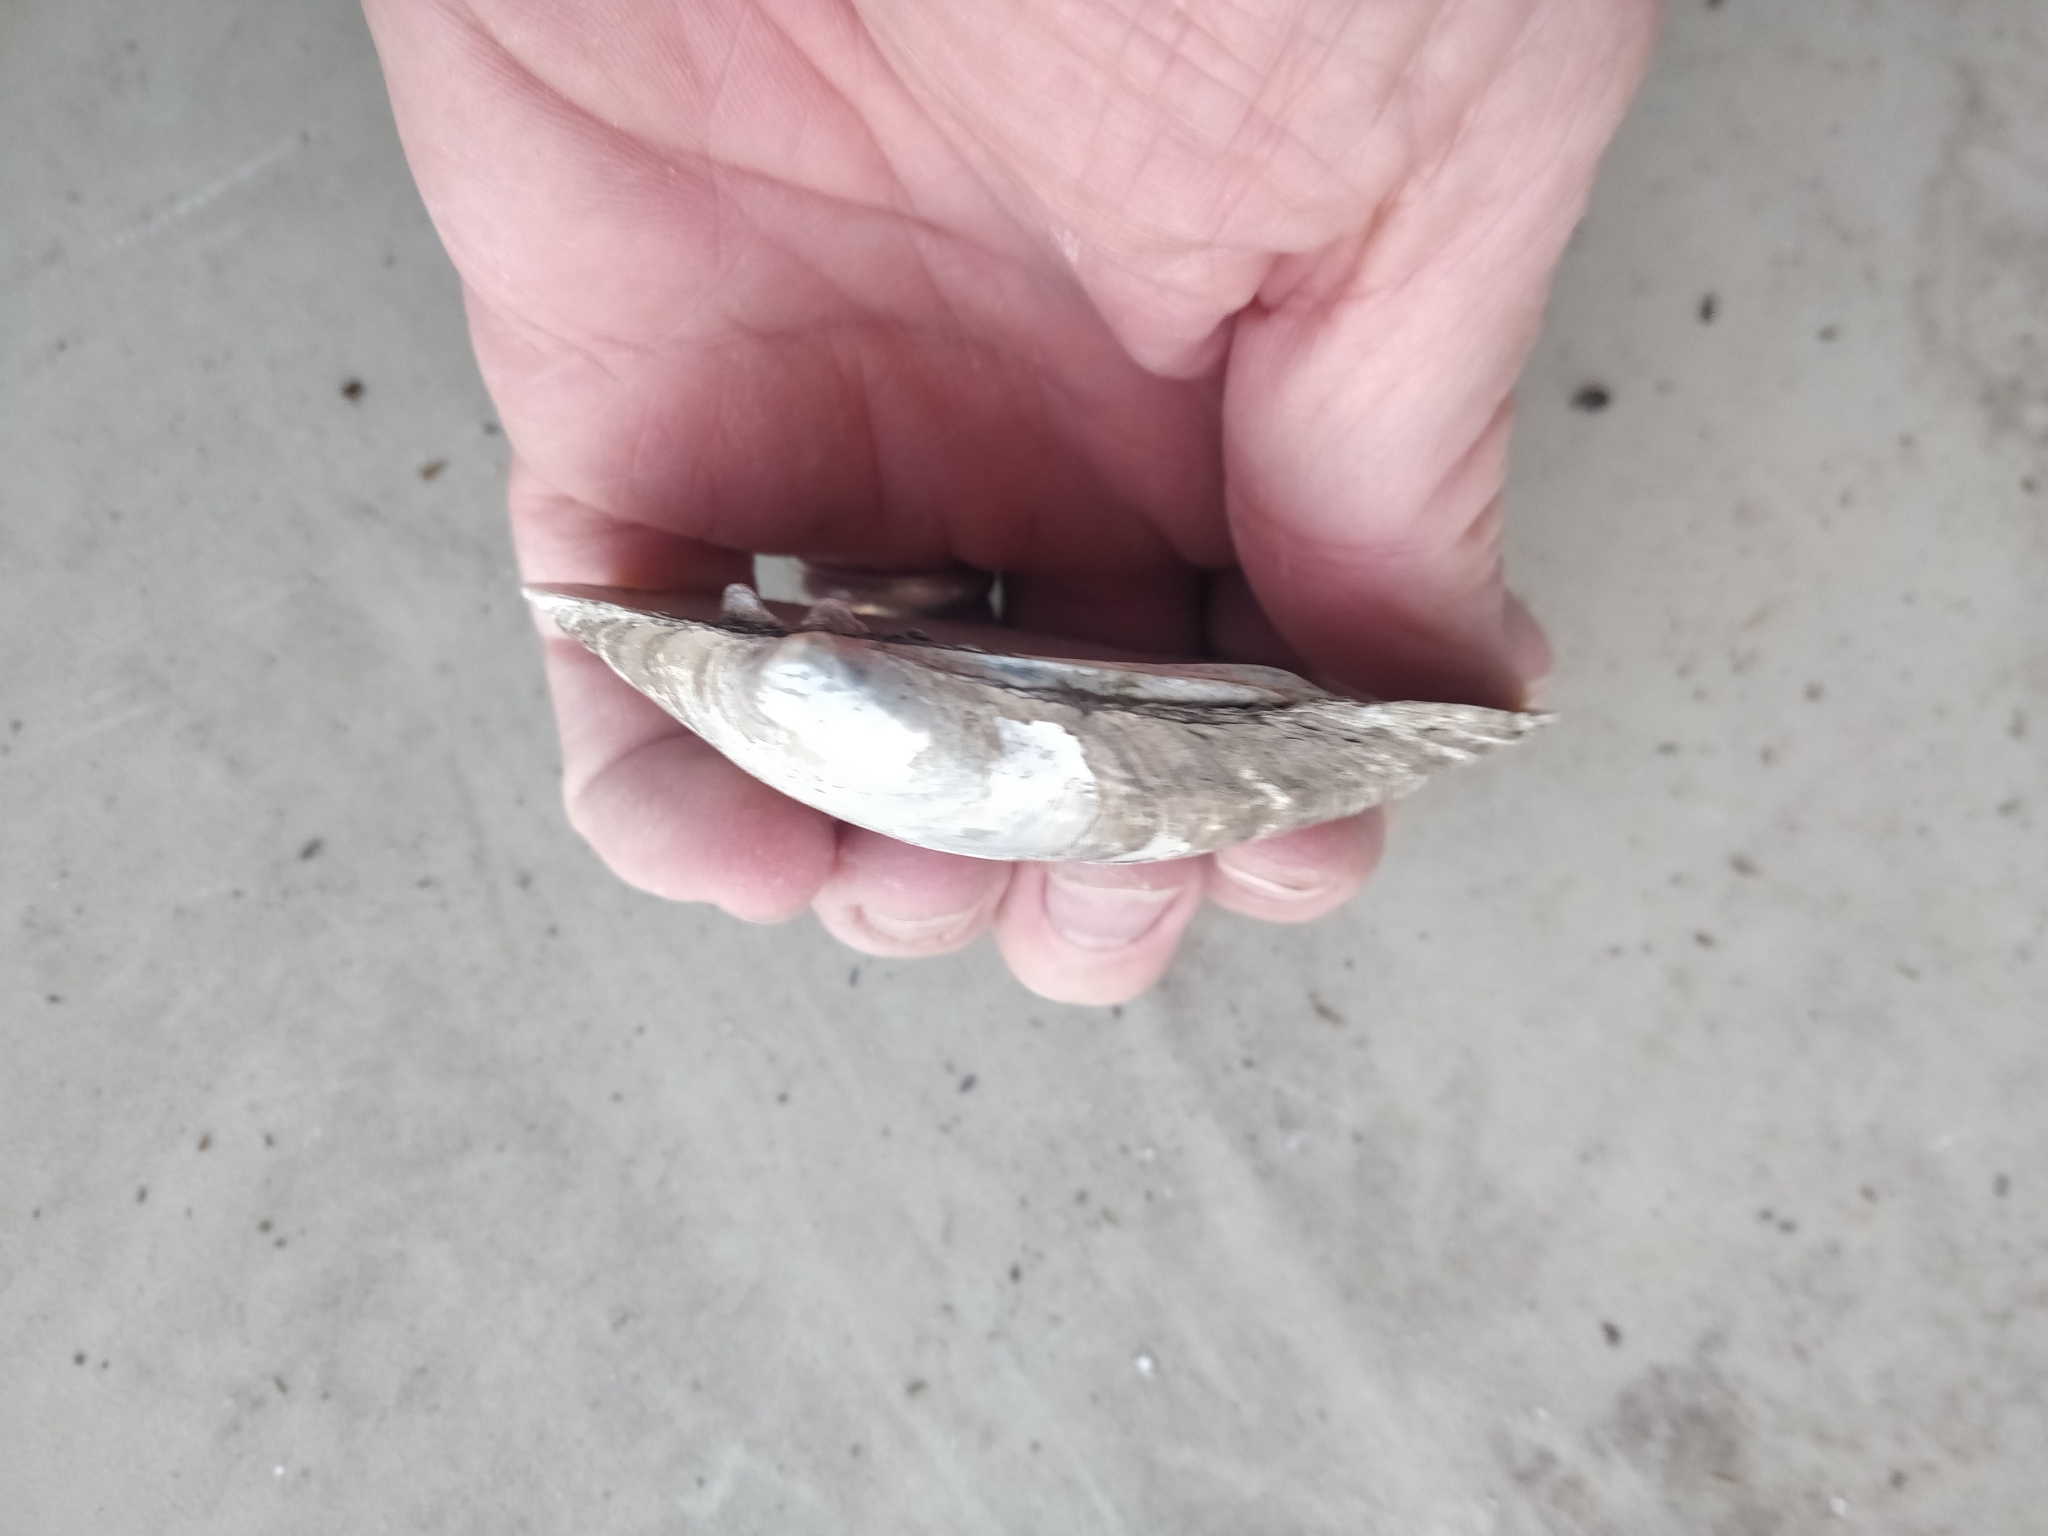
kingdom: Animalia
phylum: Mollusca
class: Bivalvia
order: Unionida
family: Unionidae
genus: Lampsilis
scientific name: Lampsilis cardium
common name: Plain pocketbook
